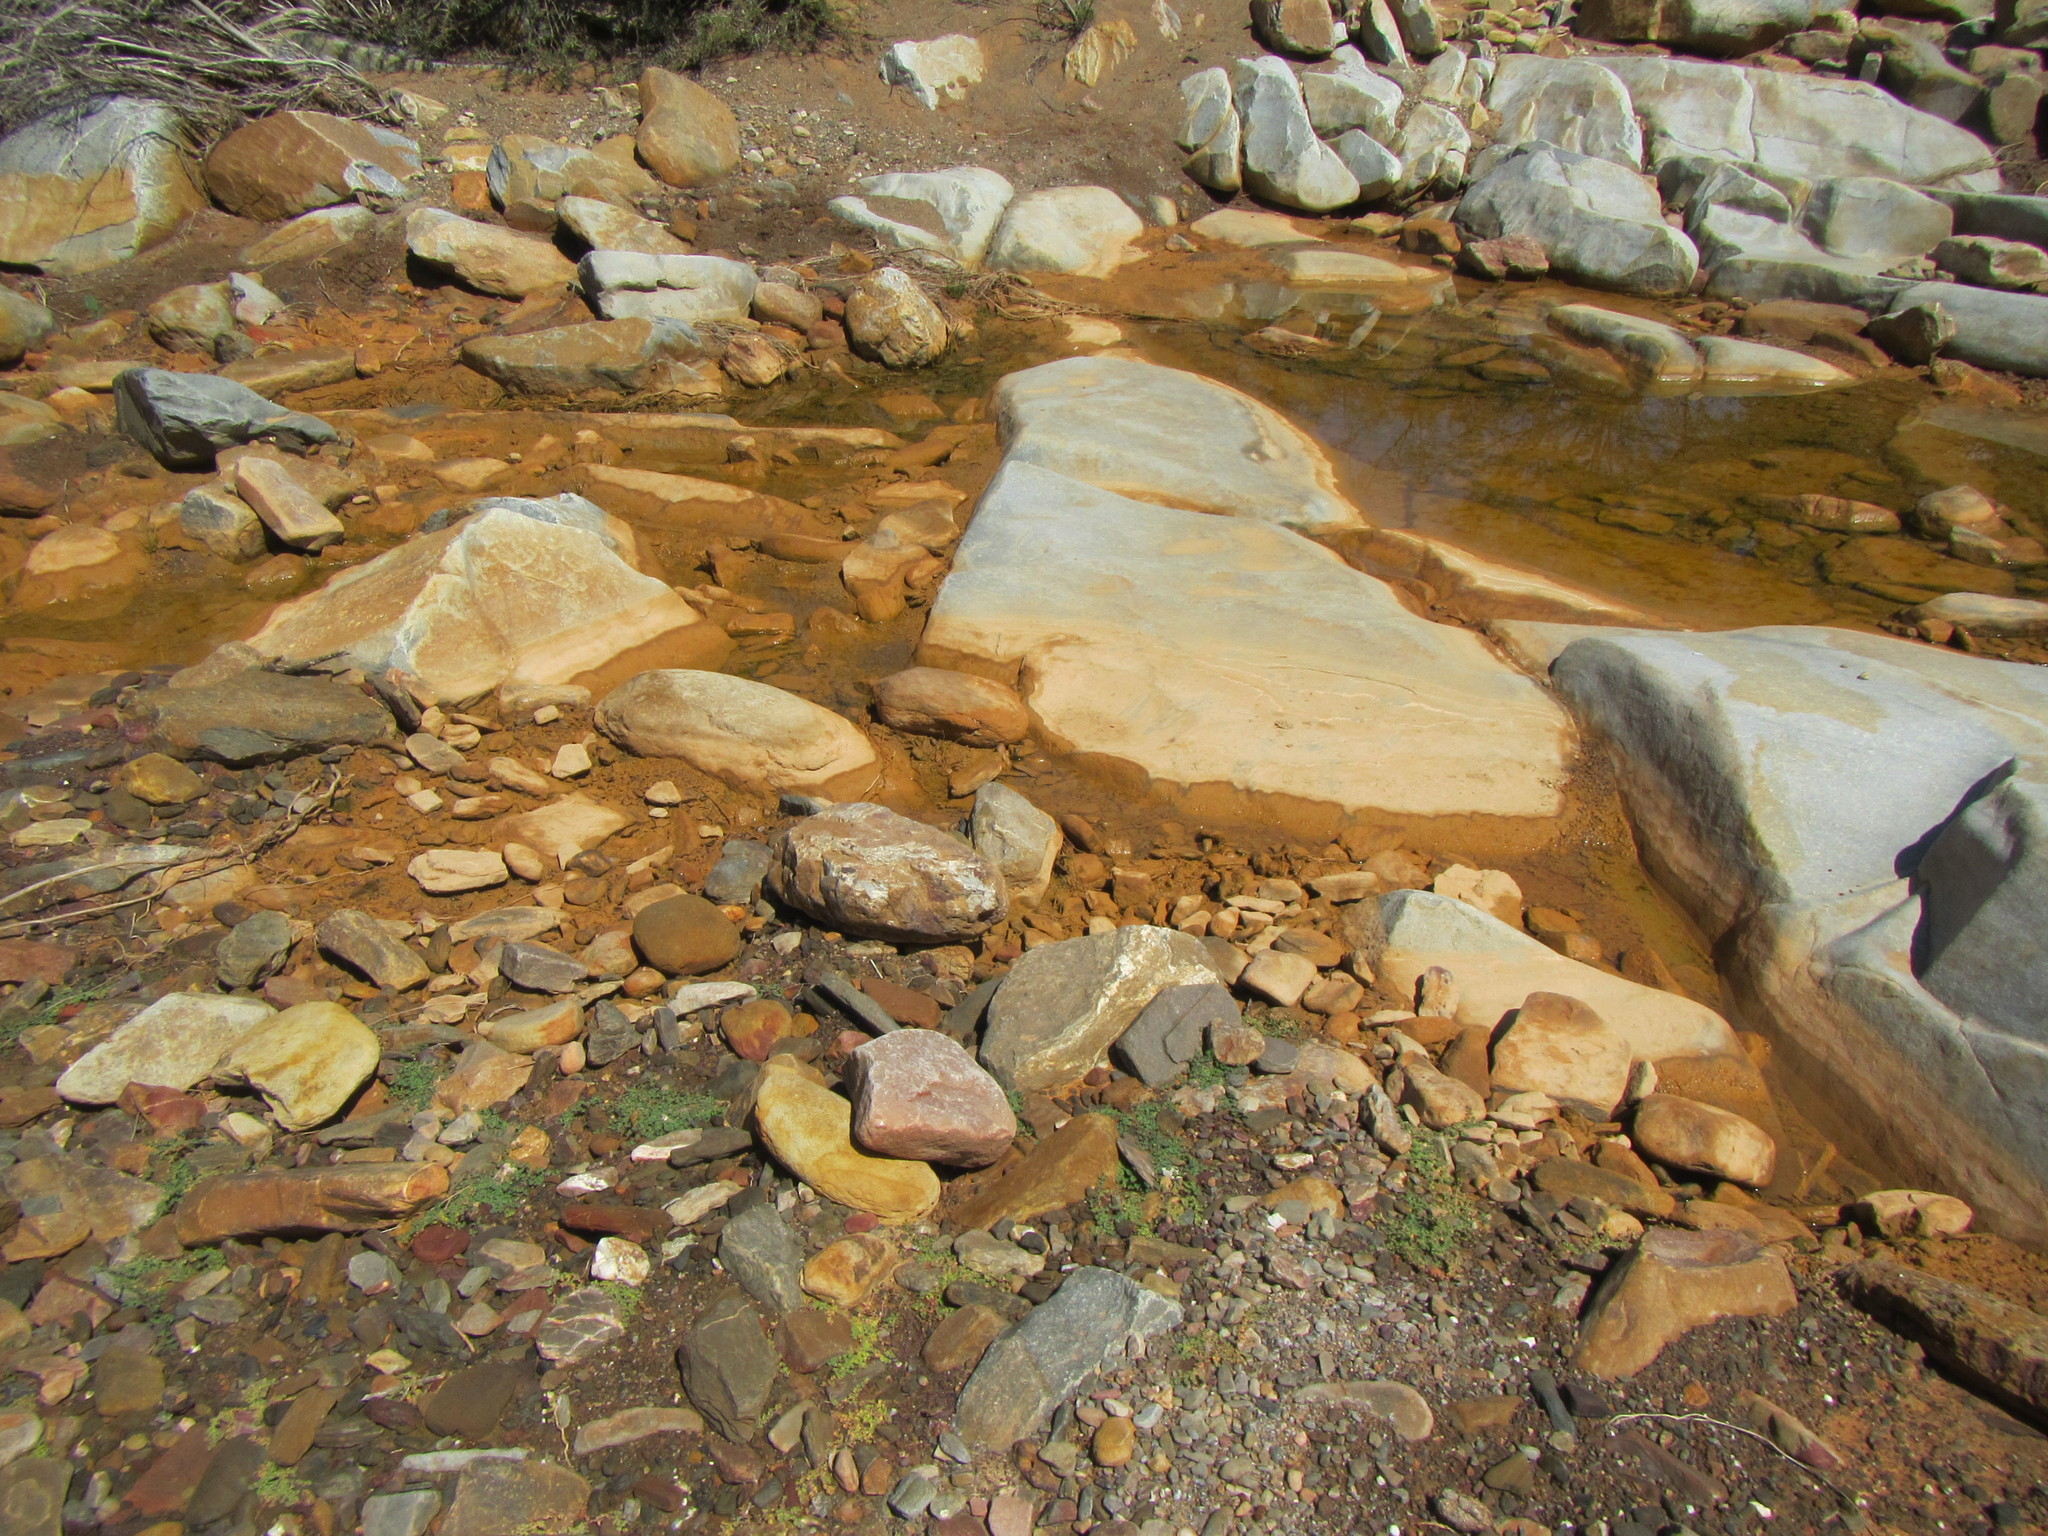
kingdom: Plantae
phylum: Tracheophyta
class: Magnoliopsida
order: Malpighiales
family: Euphorbiaceae
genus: Euphorbia
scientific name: Euphorbia serpens
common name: Matted sandmat
